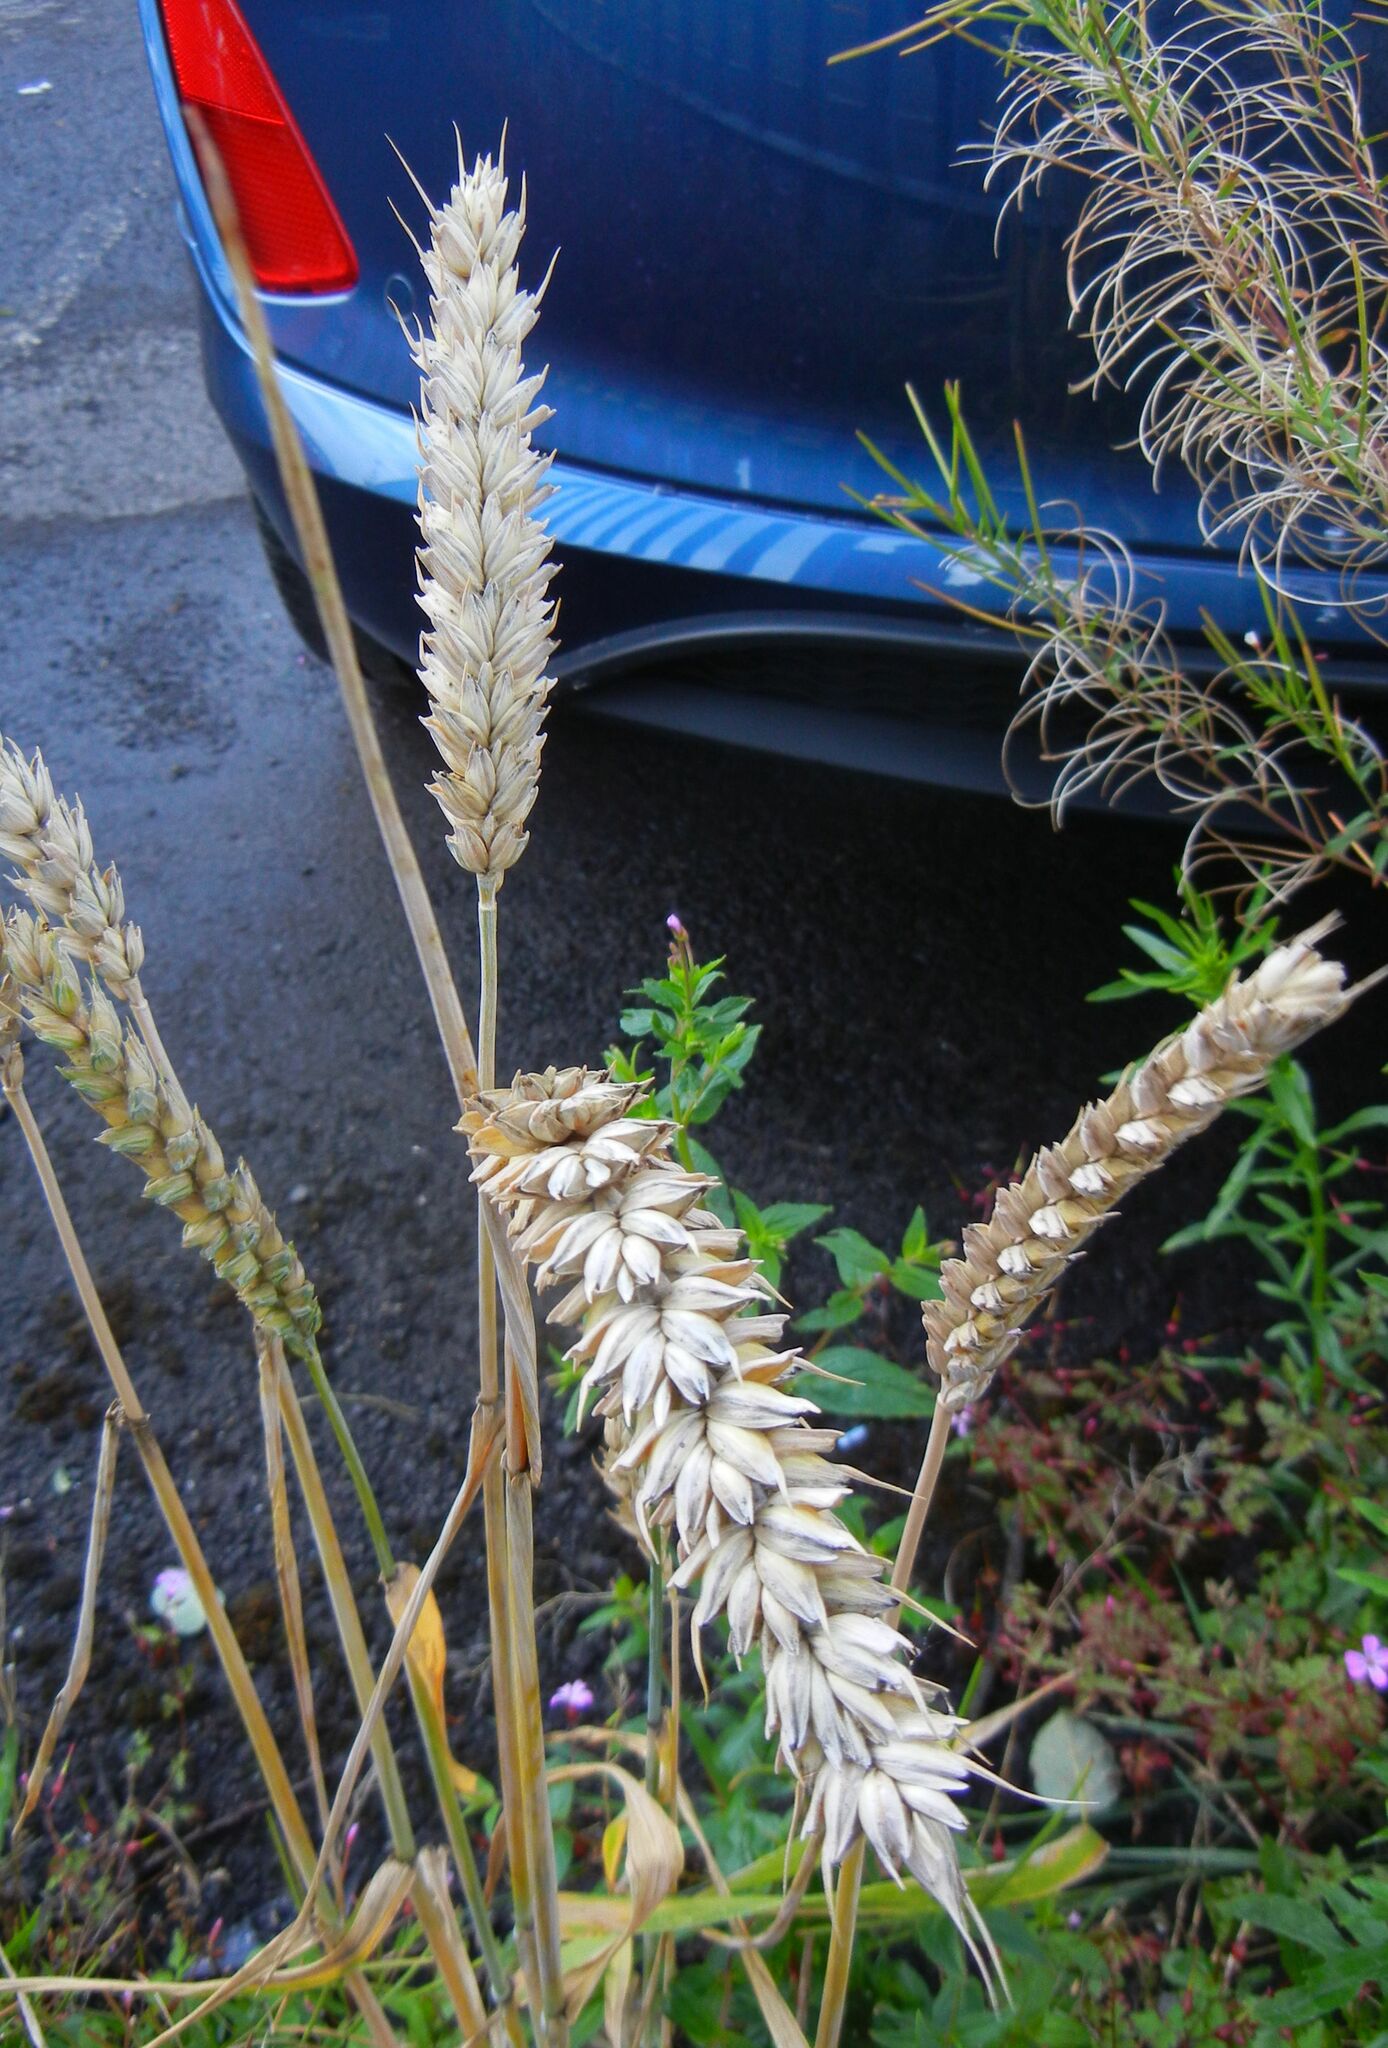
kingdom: Plantae
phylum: Tracheophyta
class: Liliopsida
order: Poales
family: Poaceae
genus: Triticum
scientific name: Triticum aestivum
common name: Common wheat
